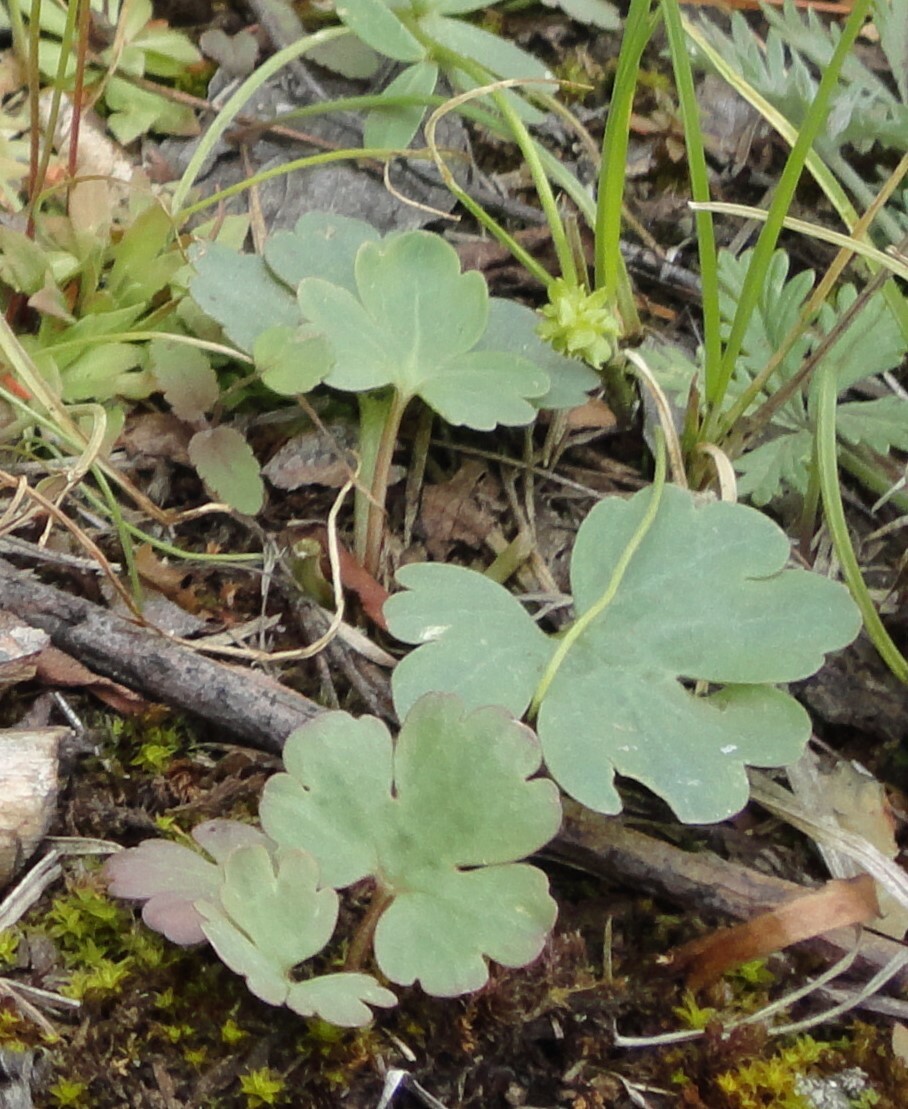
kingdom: Plantae
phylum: Tracheophyta
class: Magnoliopsida
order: Ranunculales
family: Ranunculaceae
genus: Ranunculus
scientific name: Ranunculus polyrhizos
